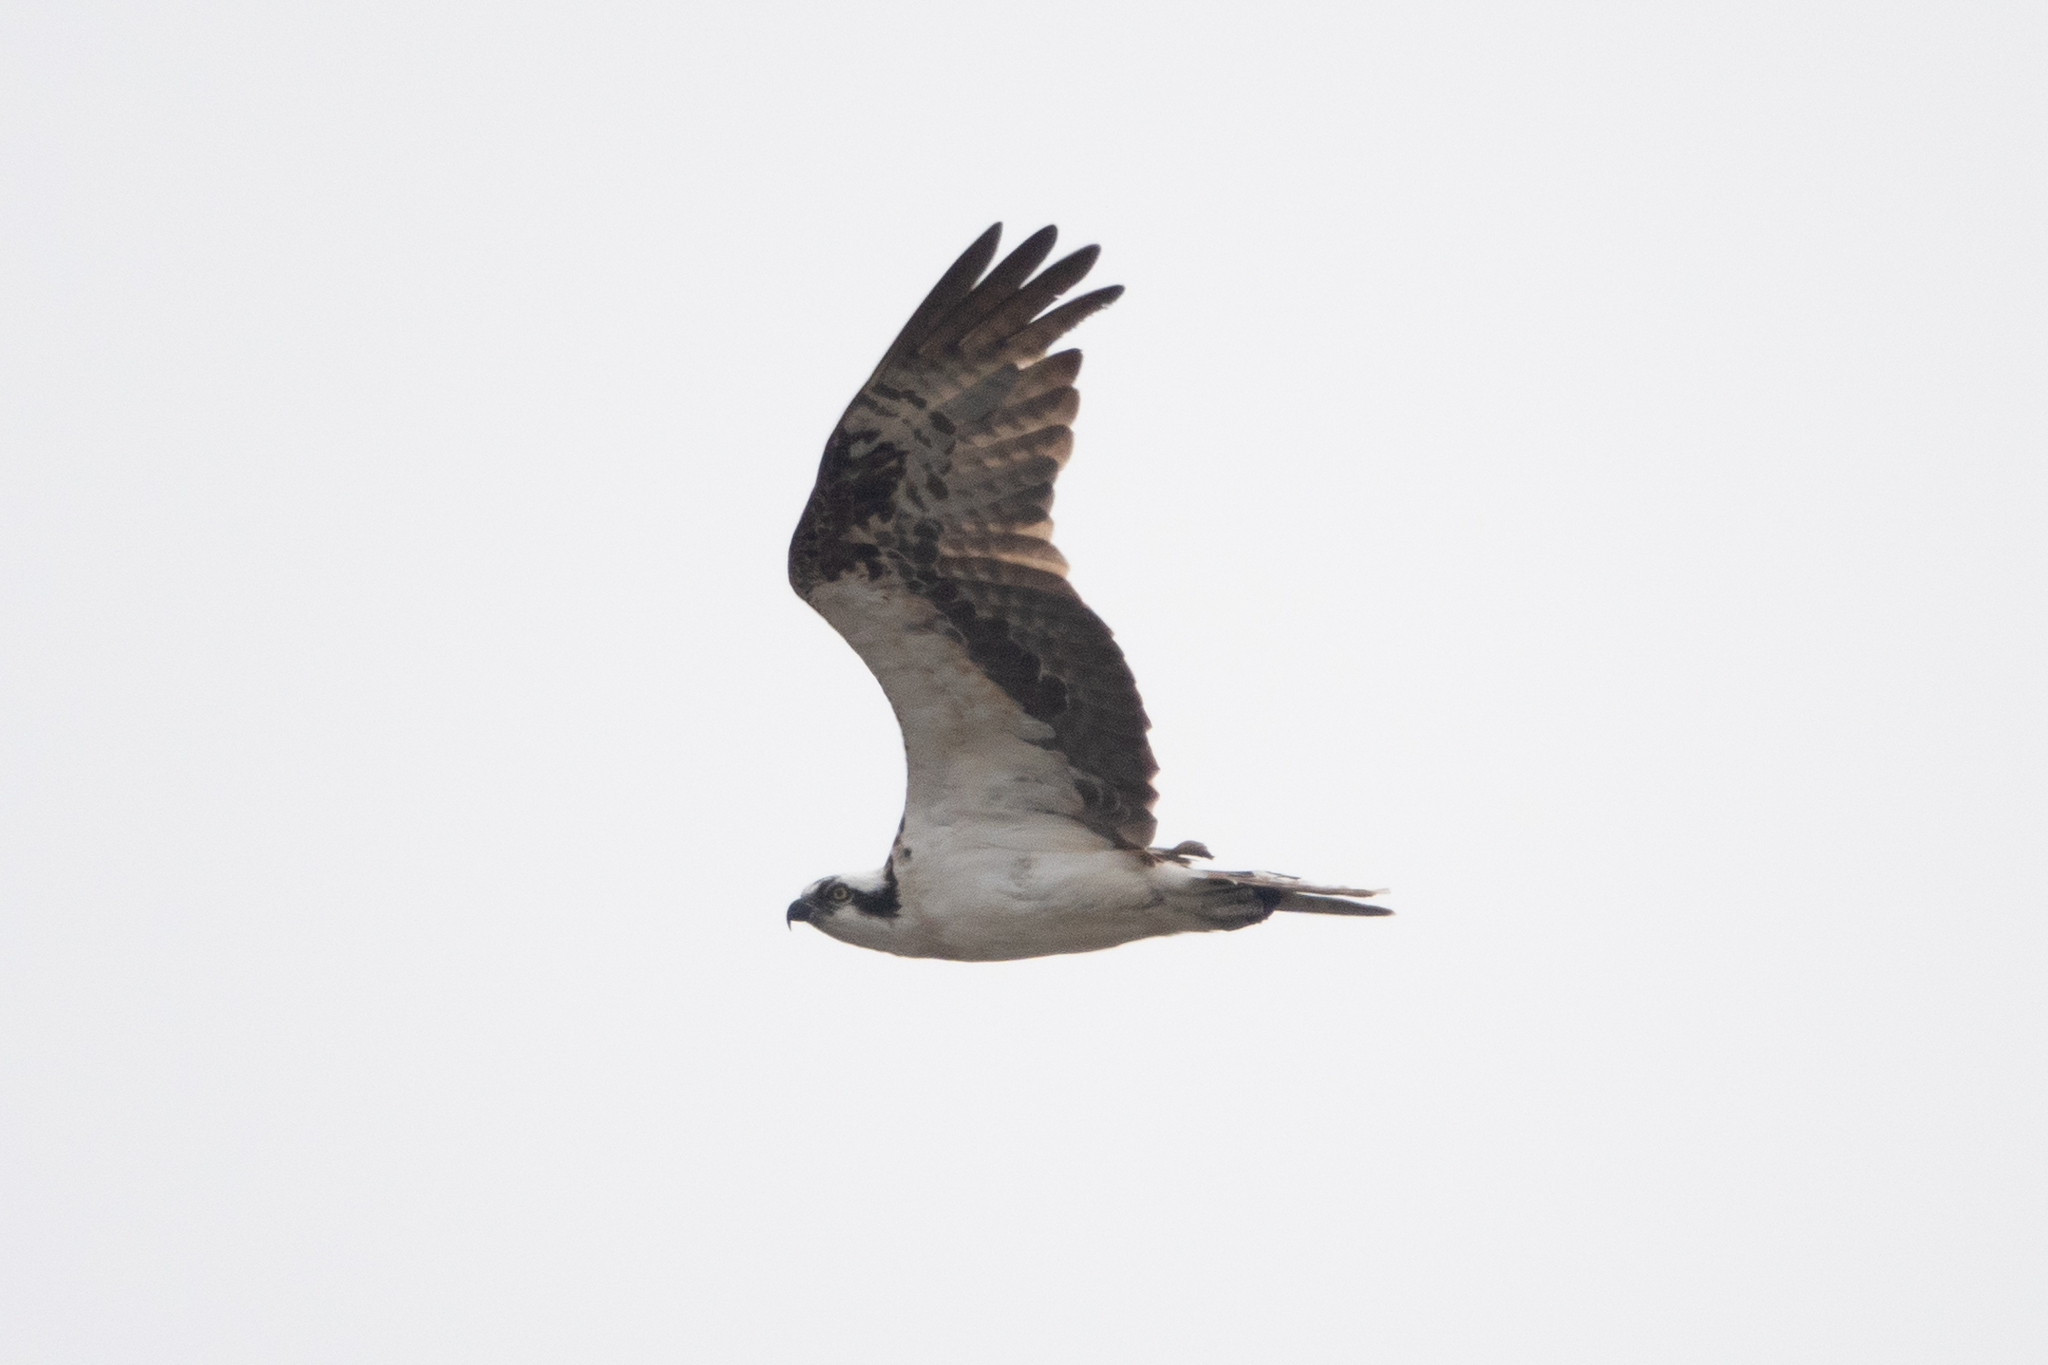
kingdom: Animalia
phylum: Chordata
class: Aves
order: Accipitriformes
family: Pandionidae
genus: Pandion
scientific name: Pandion haliaetus
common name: Osprey
